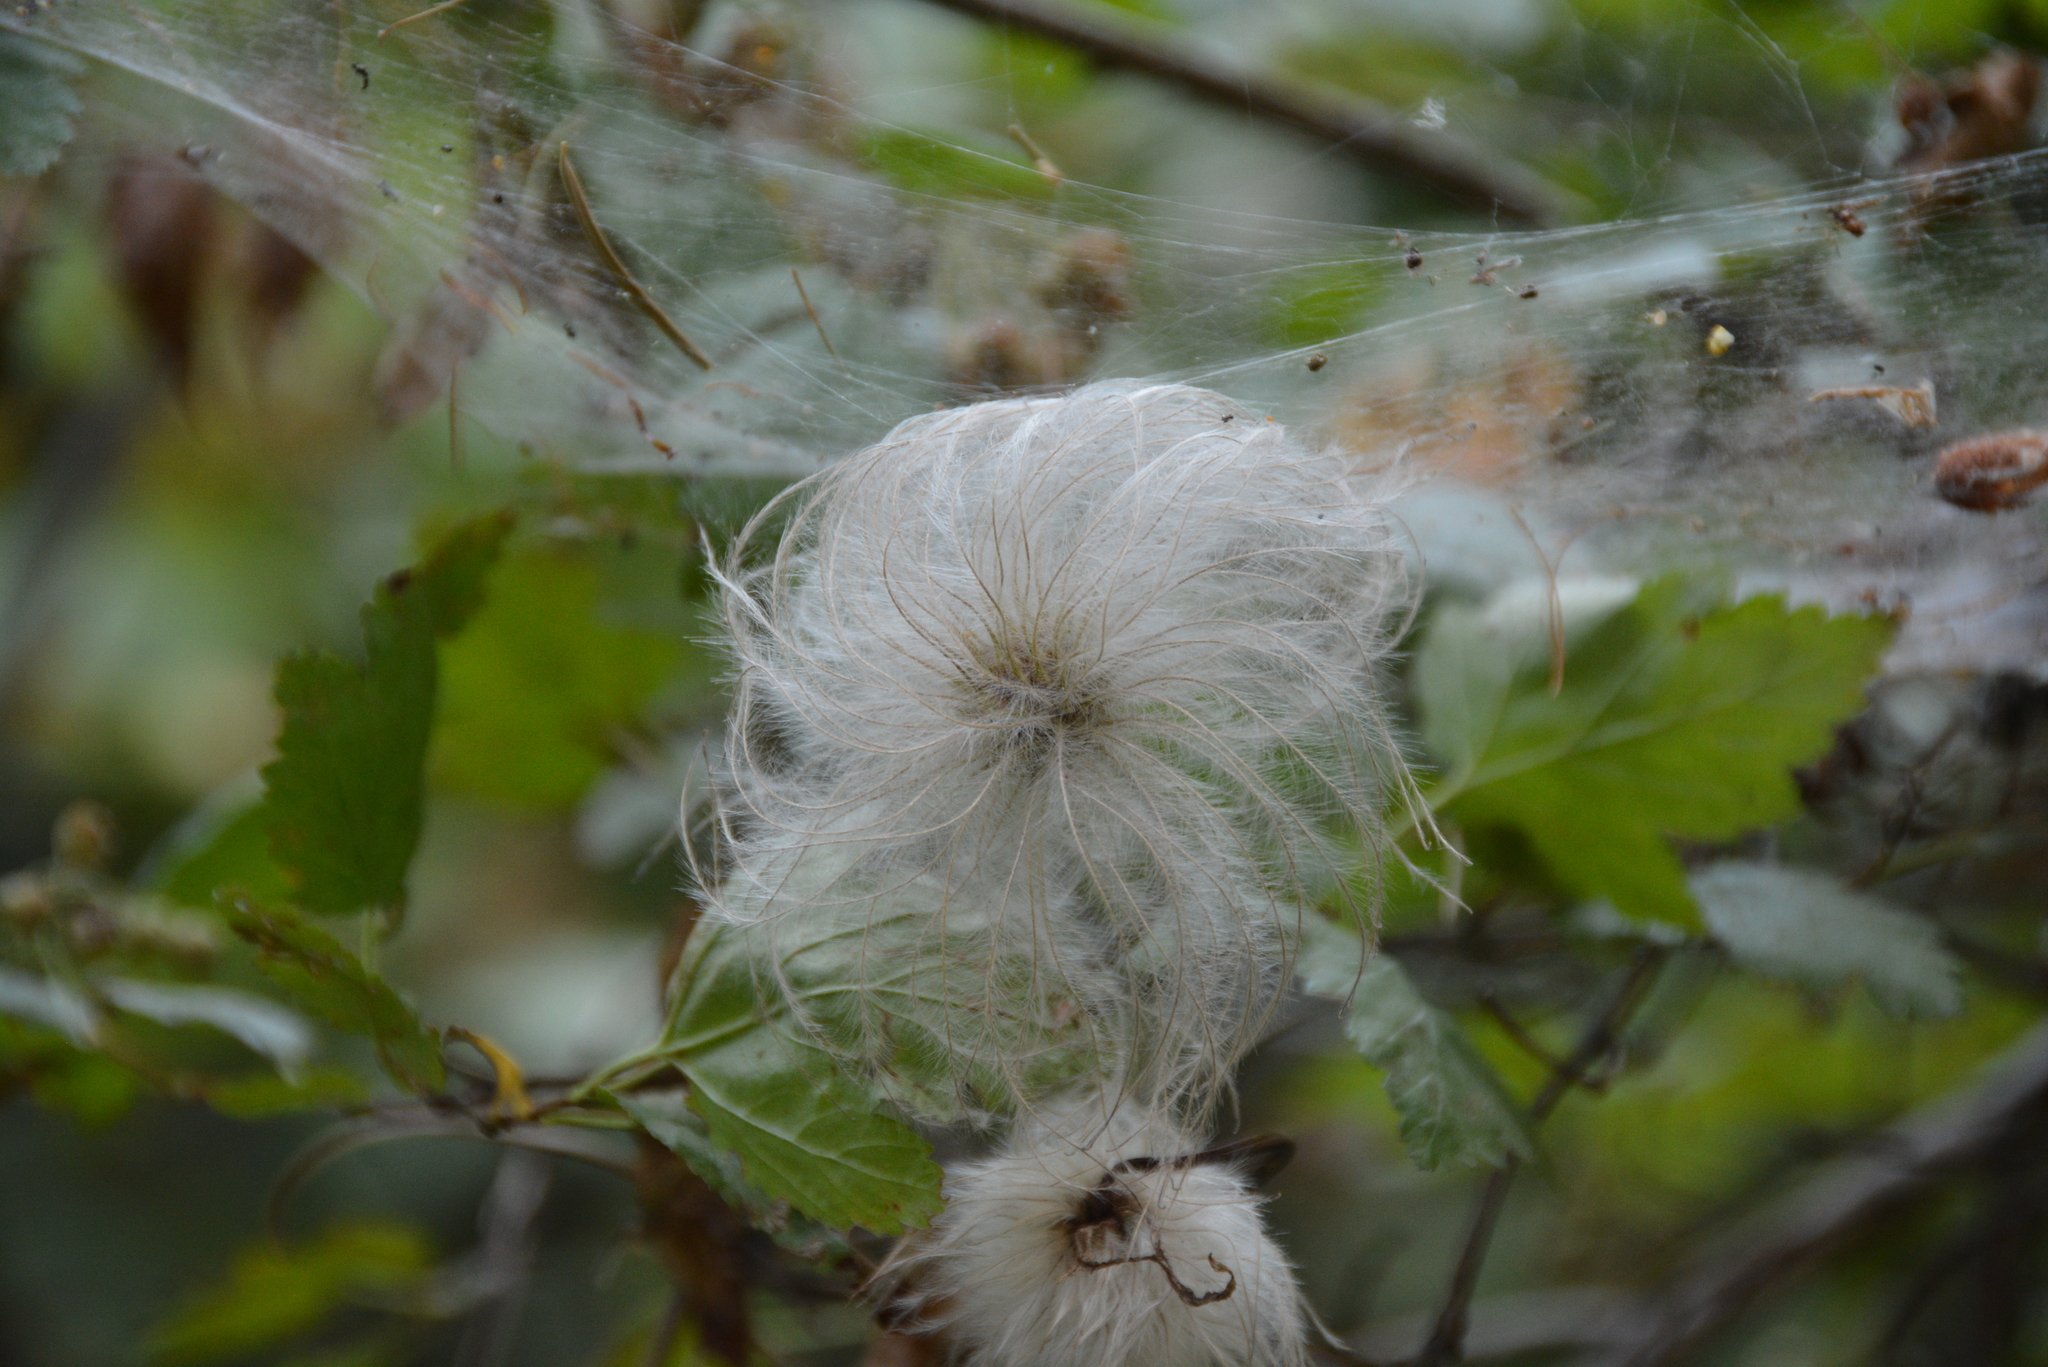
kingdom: Plantae
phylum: Tracheophyta
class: Magnoliopsida
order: Ranunculales
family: Ranunculaceae
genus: Clematis
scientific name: Clematis ligusticifolia
